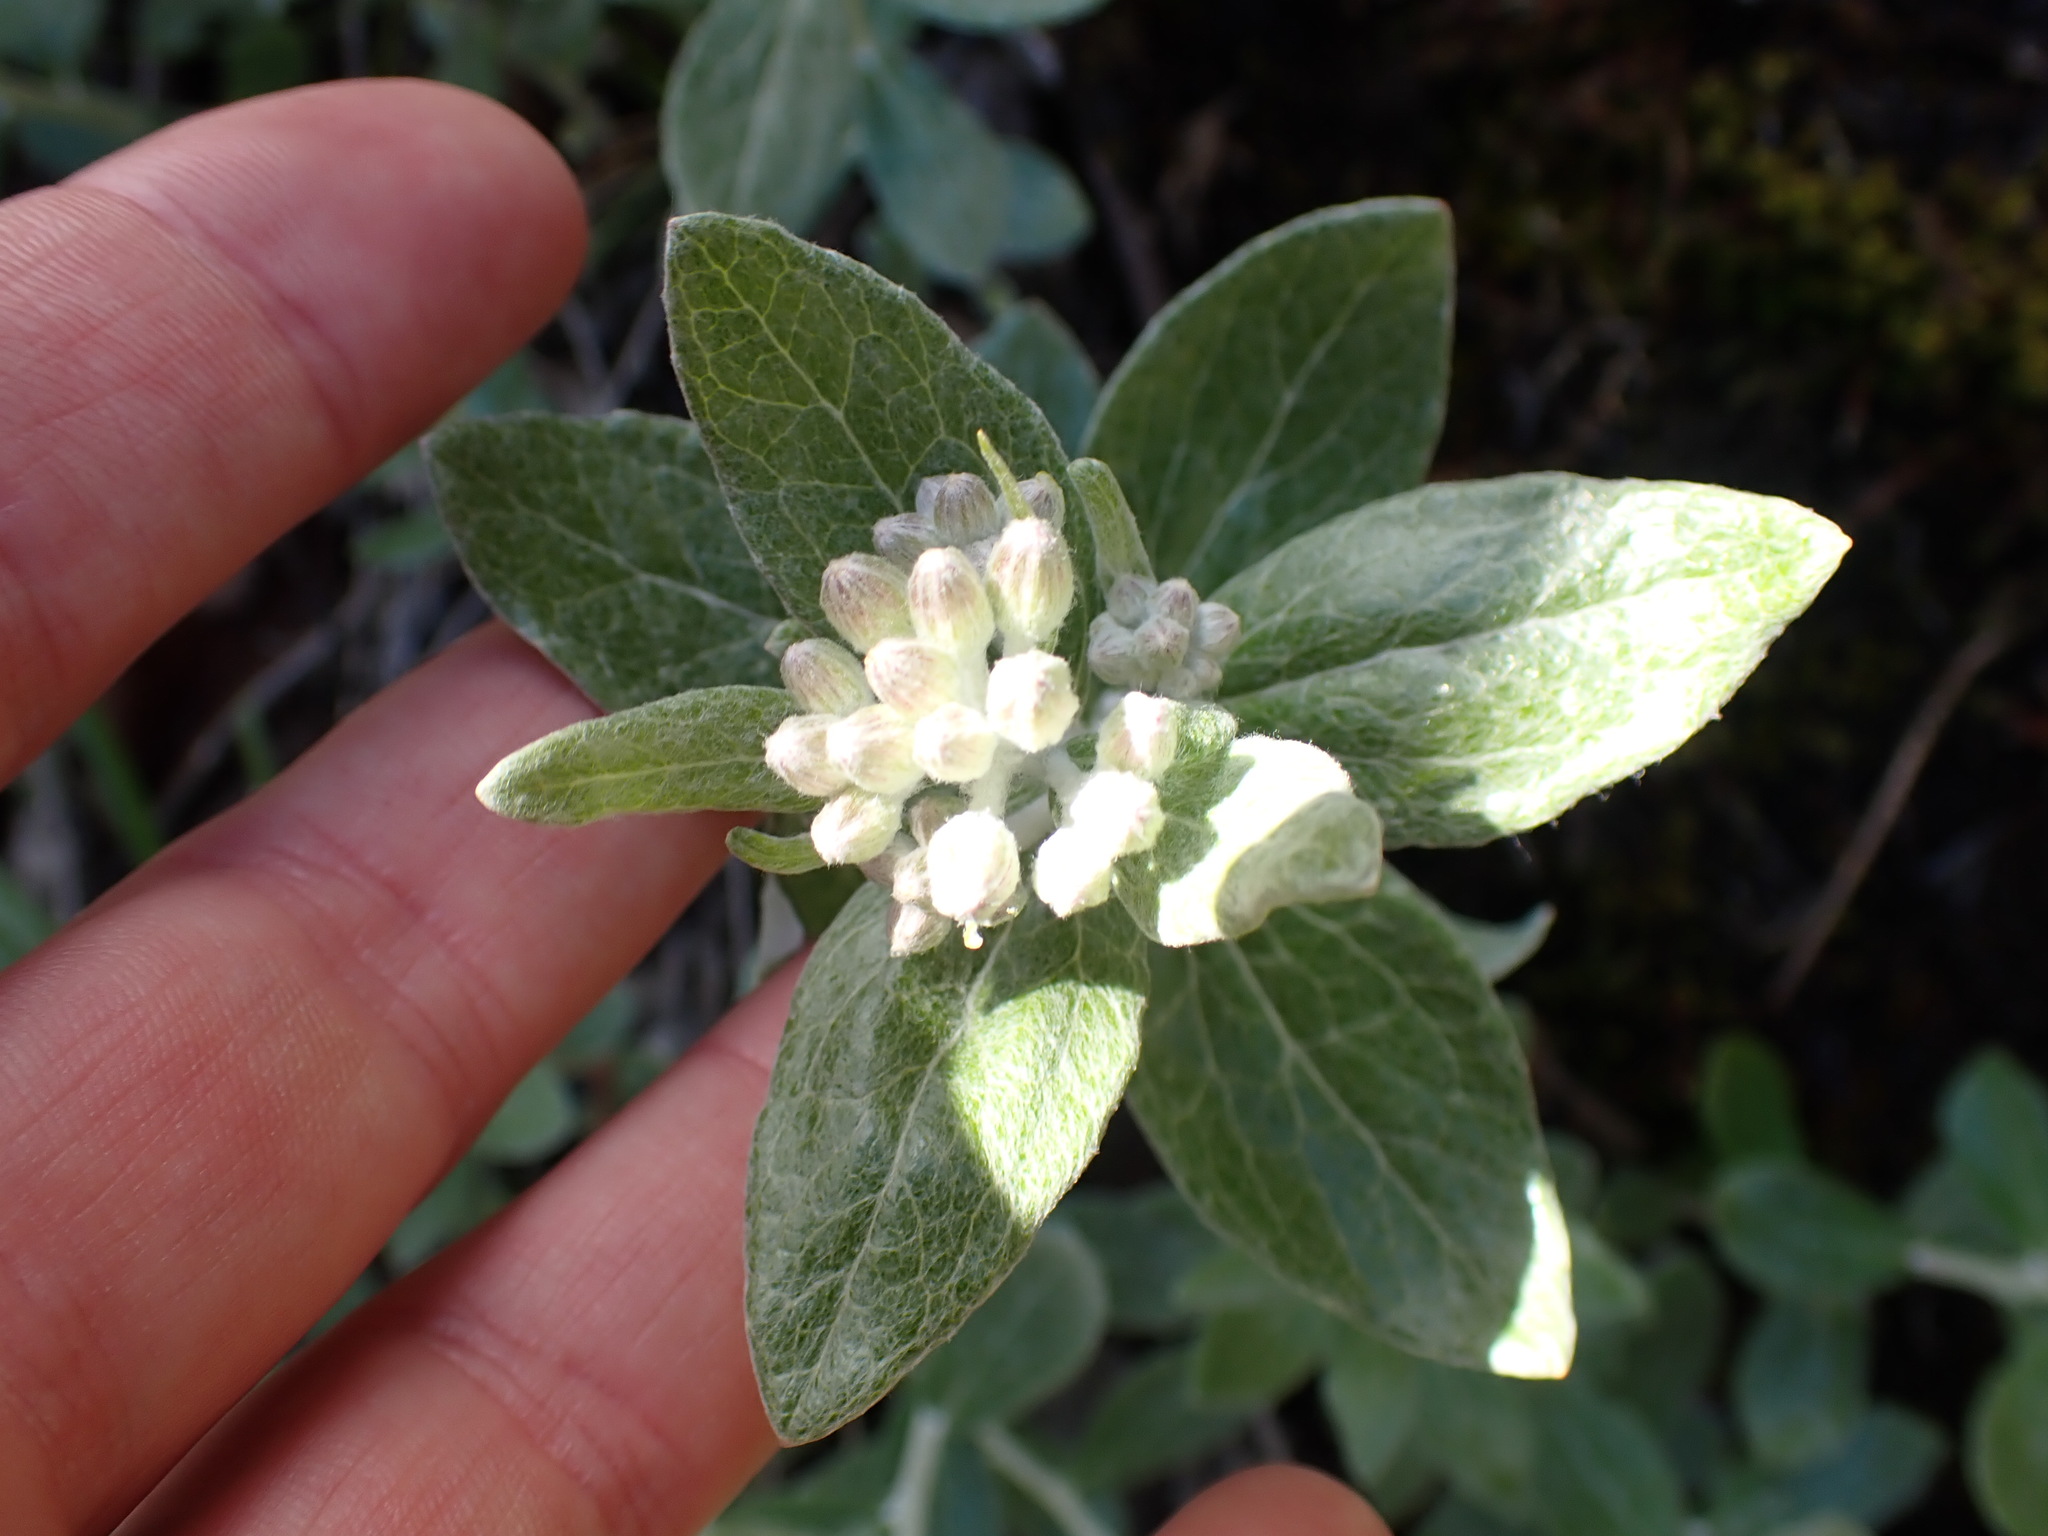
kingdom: Plantae
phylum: Tracheophyta
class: Magnoliopsida
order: Asterales
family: Asteraceae
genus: Luina
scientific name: Luina hypoleuca
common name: Little-leaved luina
